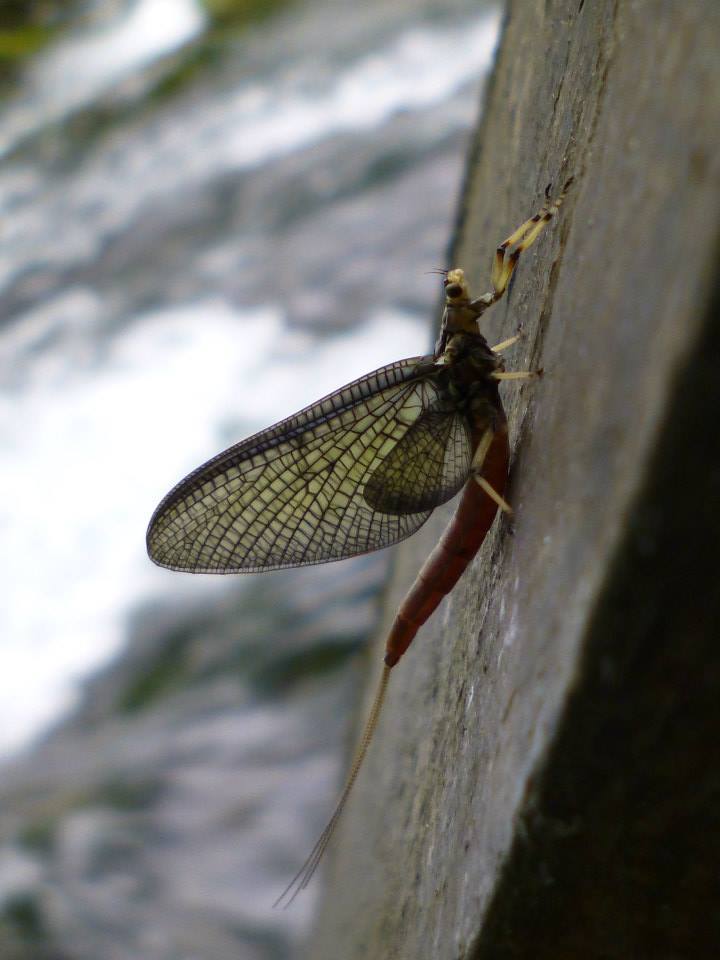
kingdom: Animalia
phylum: Arthropoda
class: Insecta
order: Ephemeroptera
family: Ephemeridae
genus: Ephemera
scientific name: Ephemera zettana
